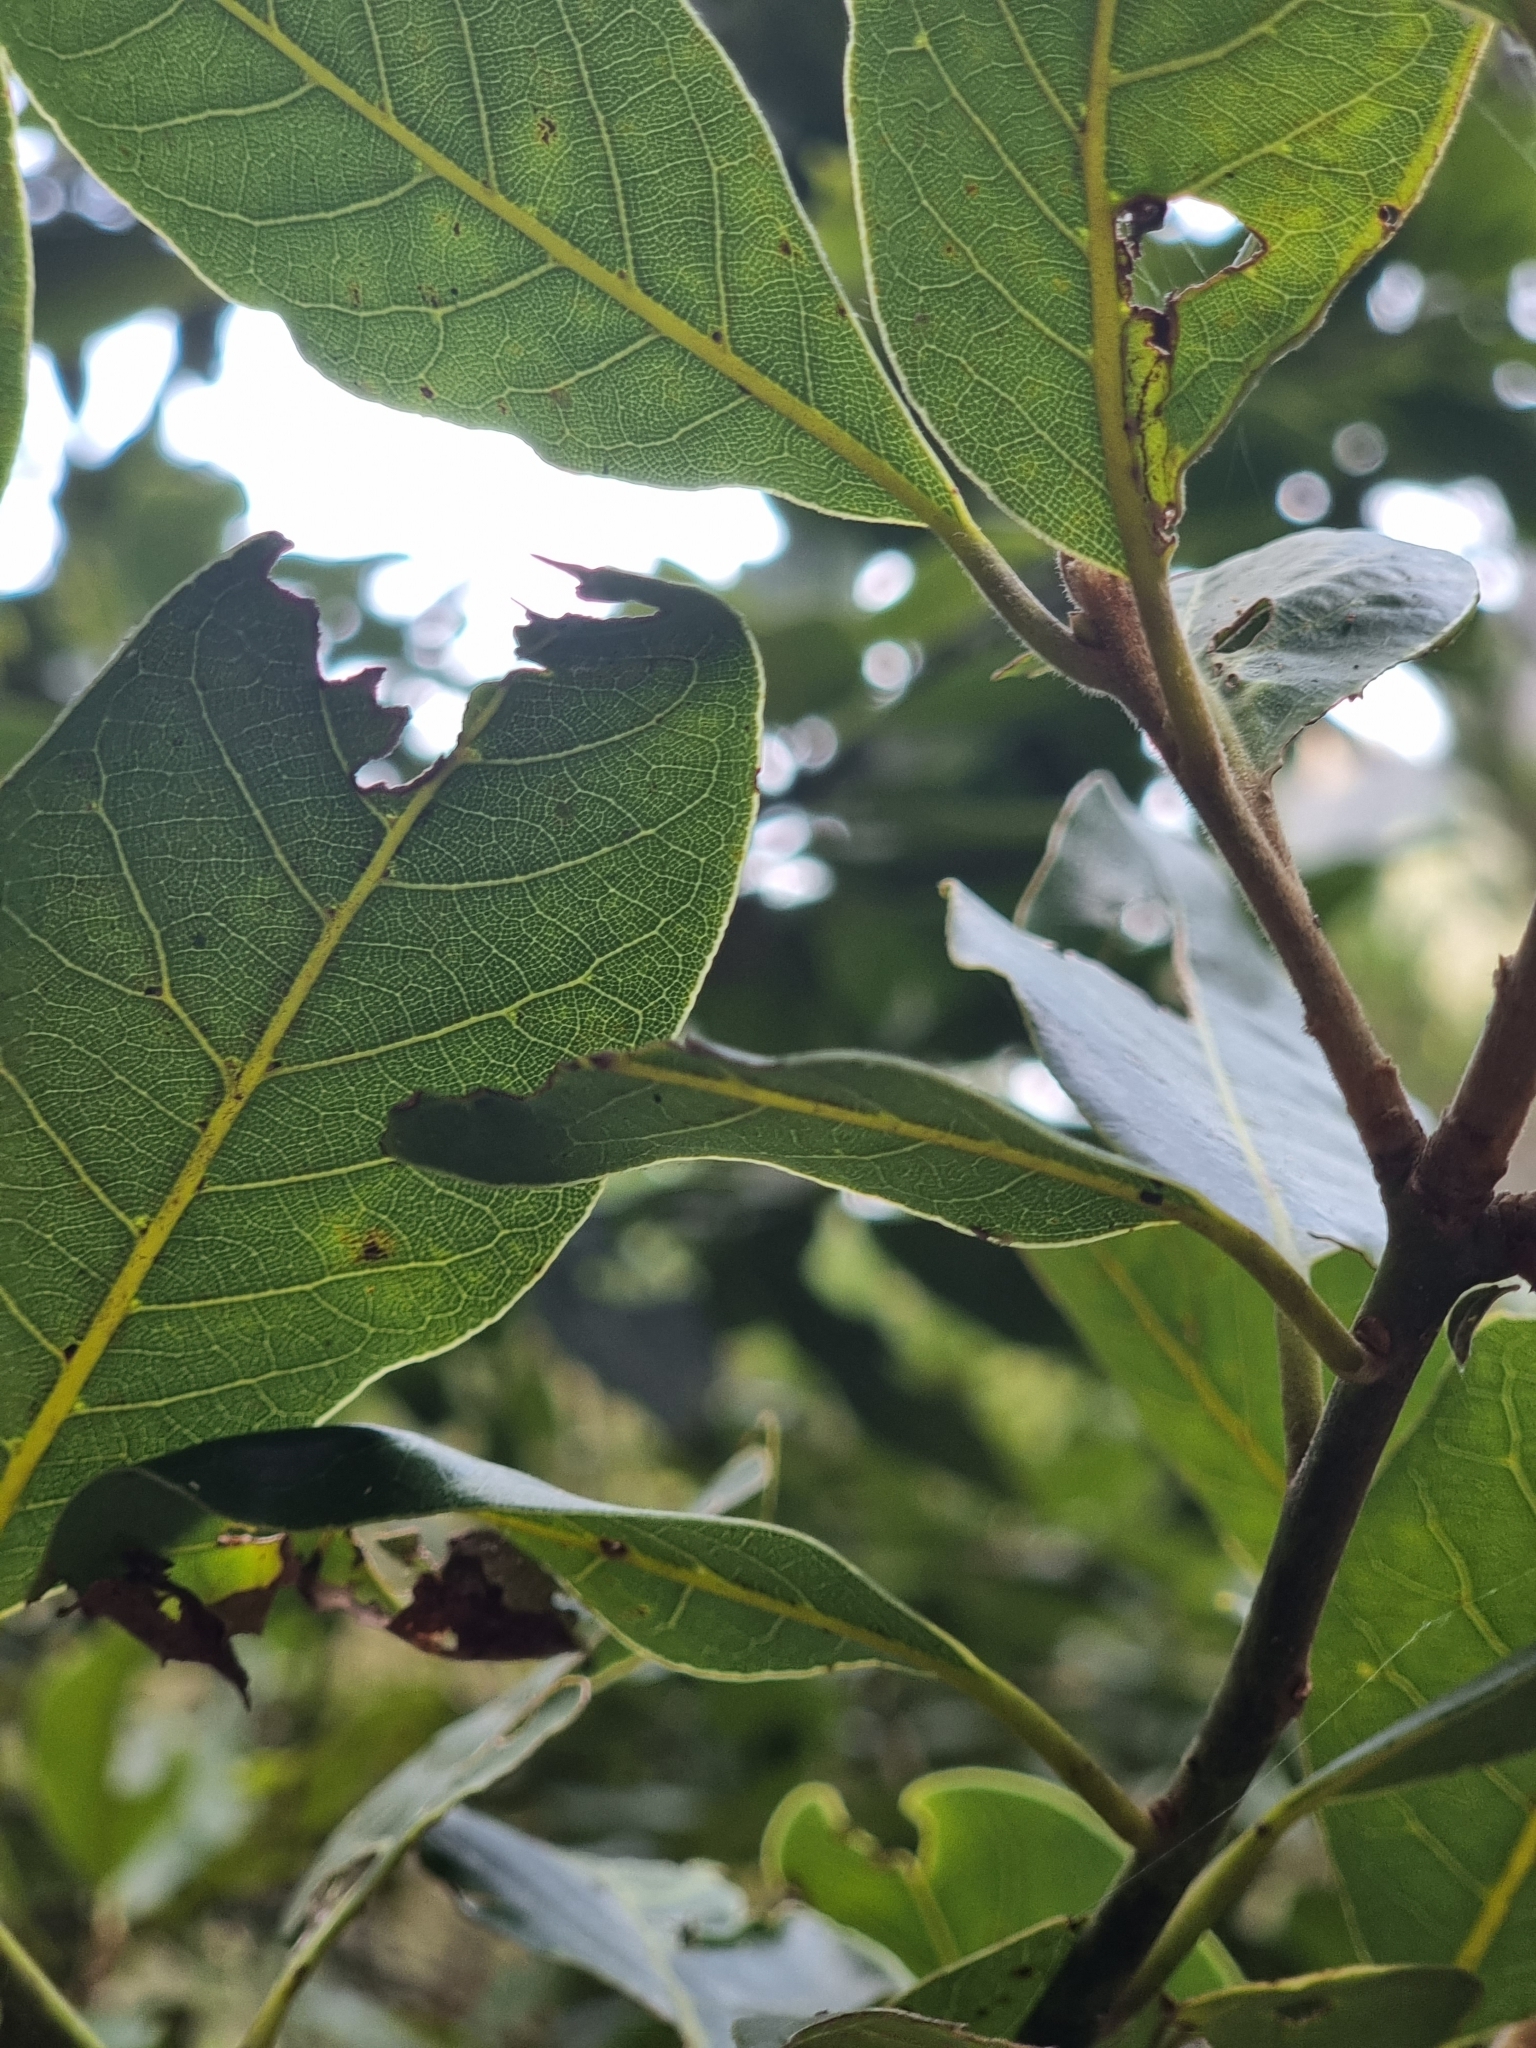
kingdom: Plantae
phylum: Tracheophyta
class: Magnoliopsida
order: Laurales
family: Lauraceae
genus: Laurus
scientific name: Laurus novocanariensis
